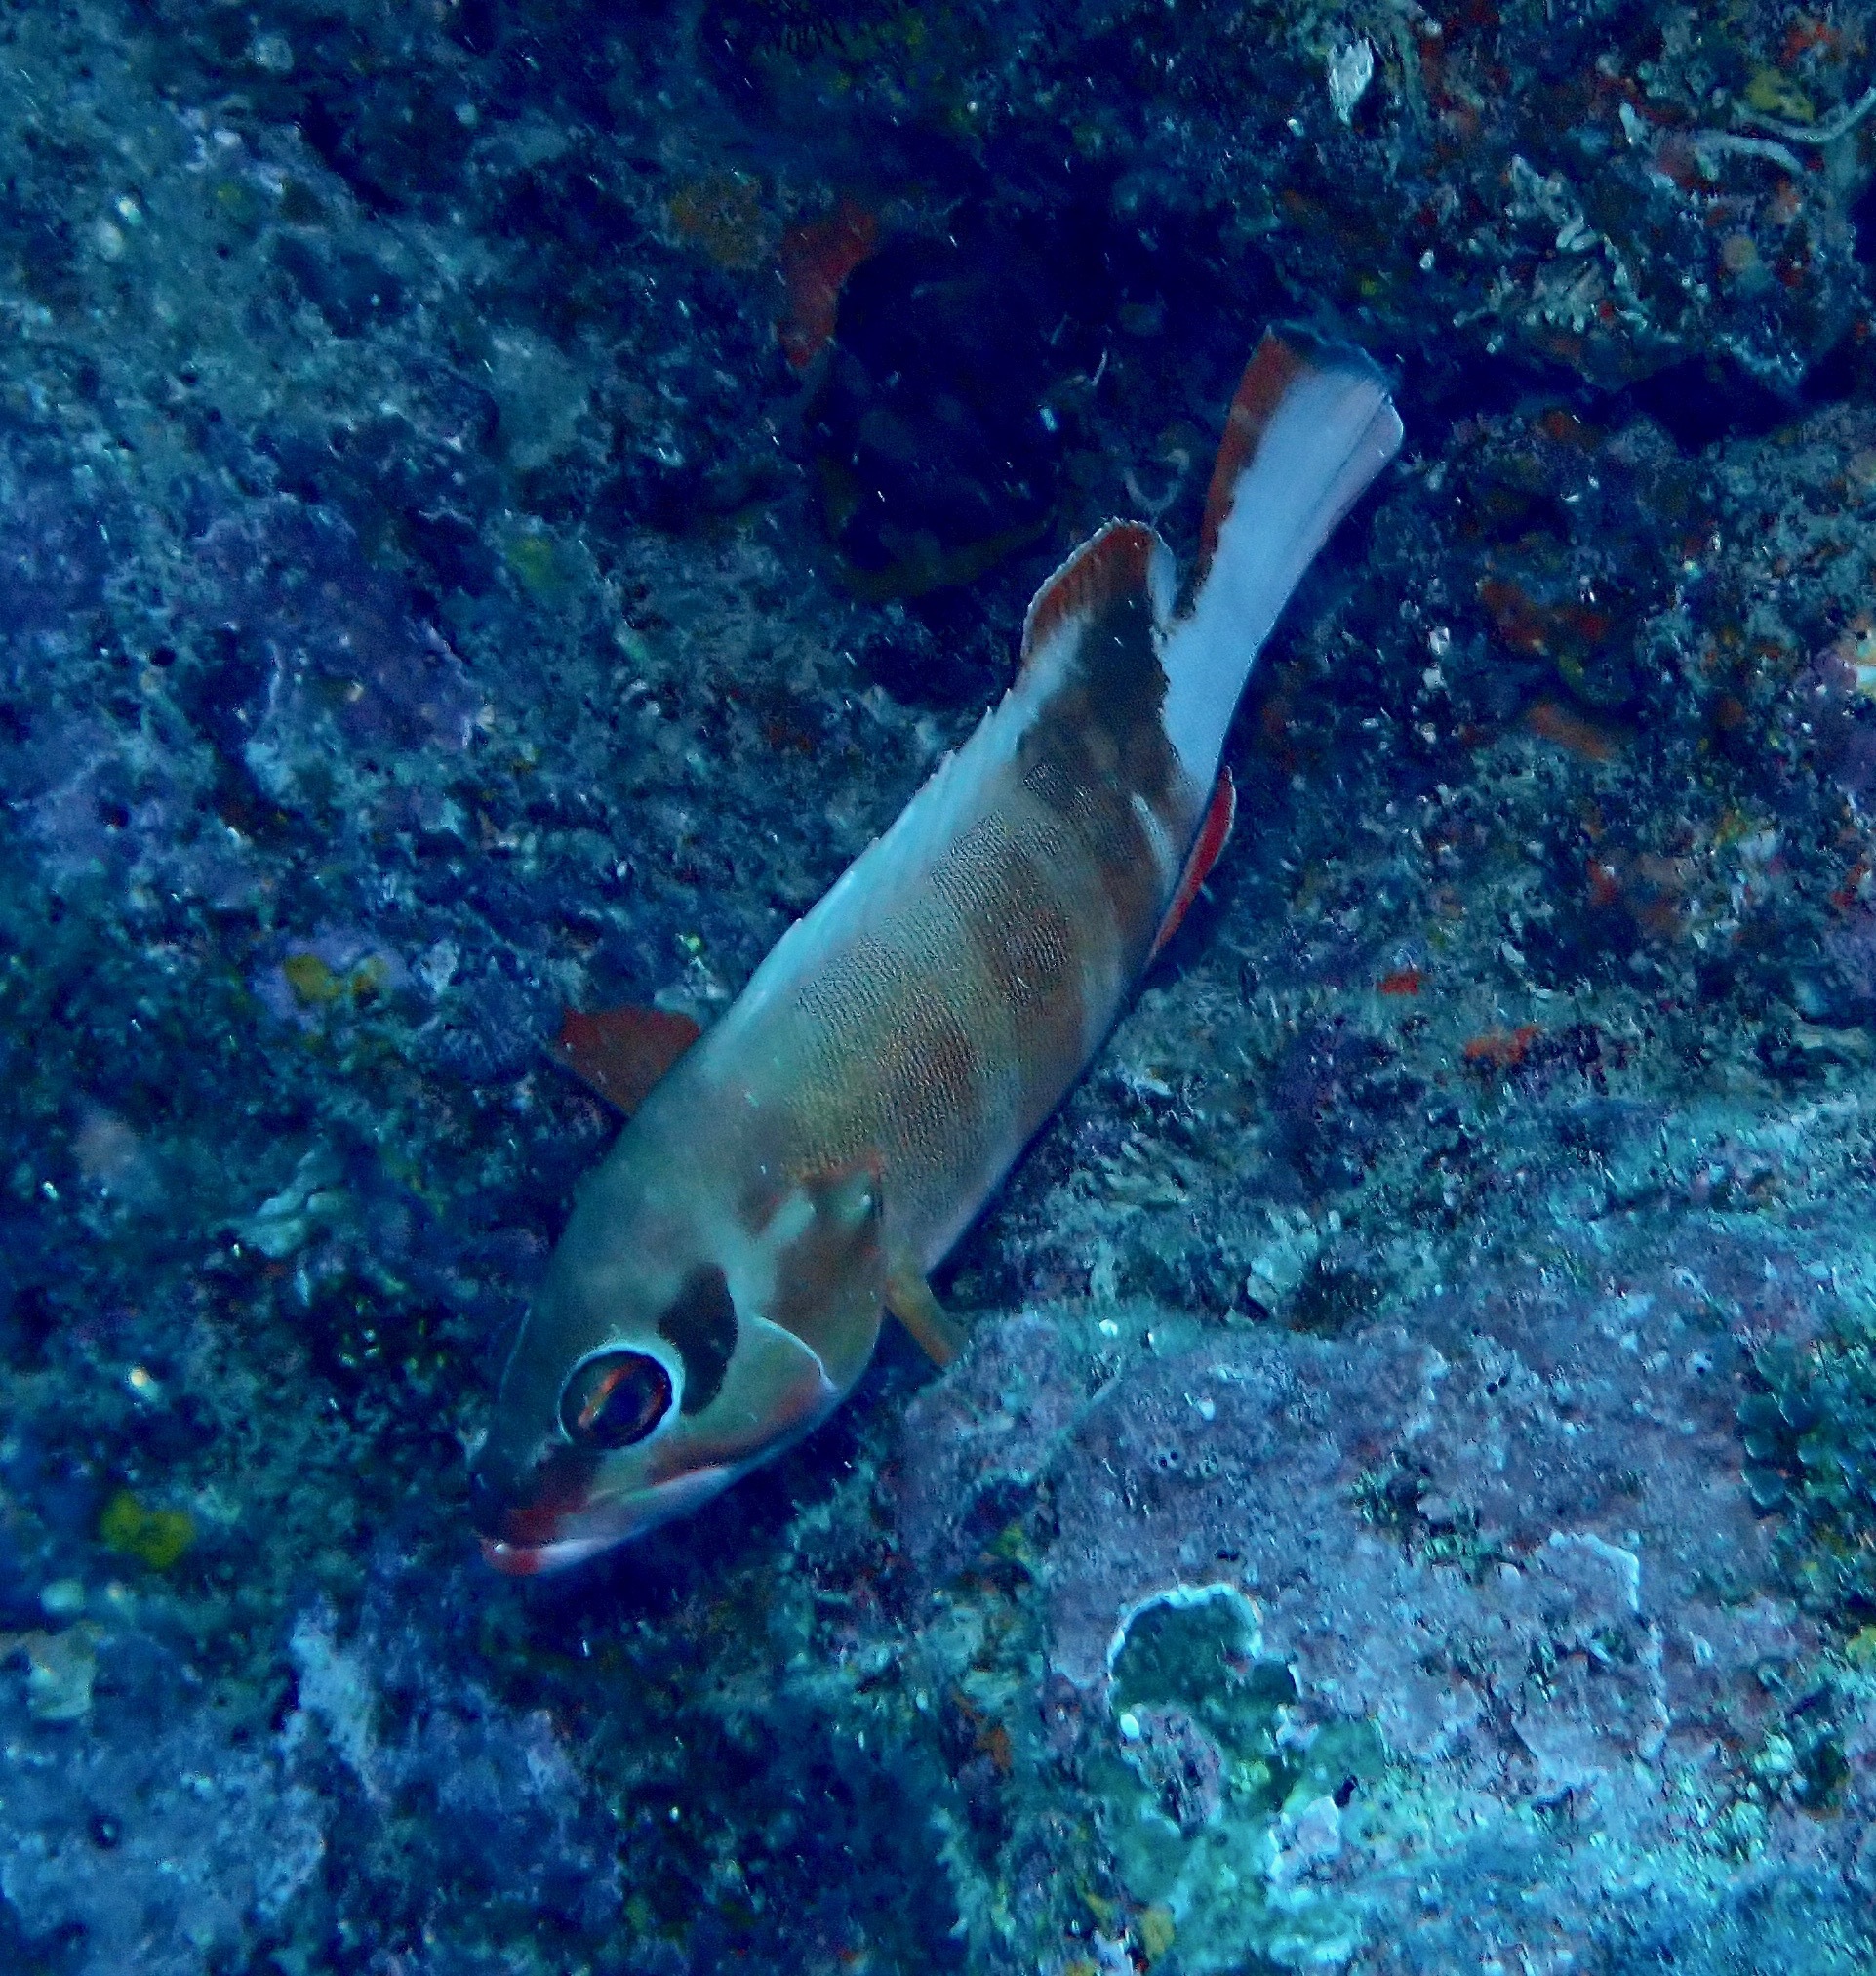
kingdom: Animalia
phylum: Chordata
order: Perciformes
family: Serranidae
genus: Epinephelus
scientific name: Epinephelus fasciatus
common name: Blacktip grouper
